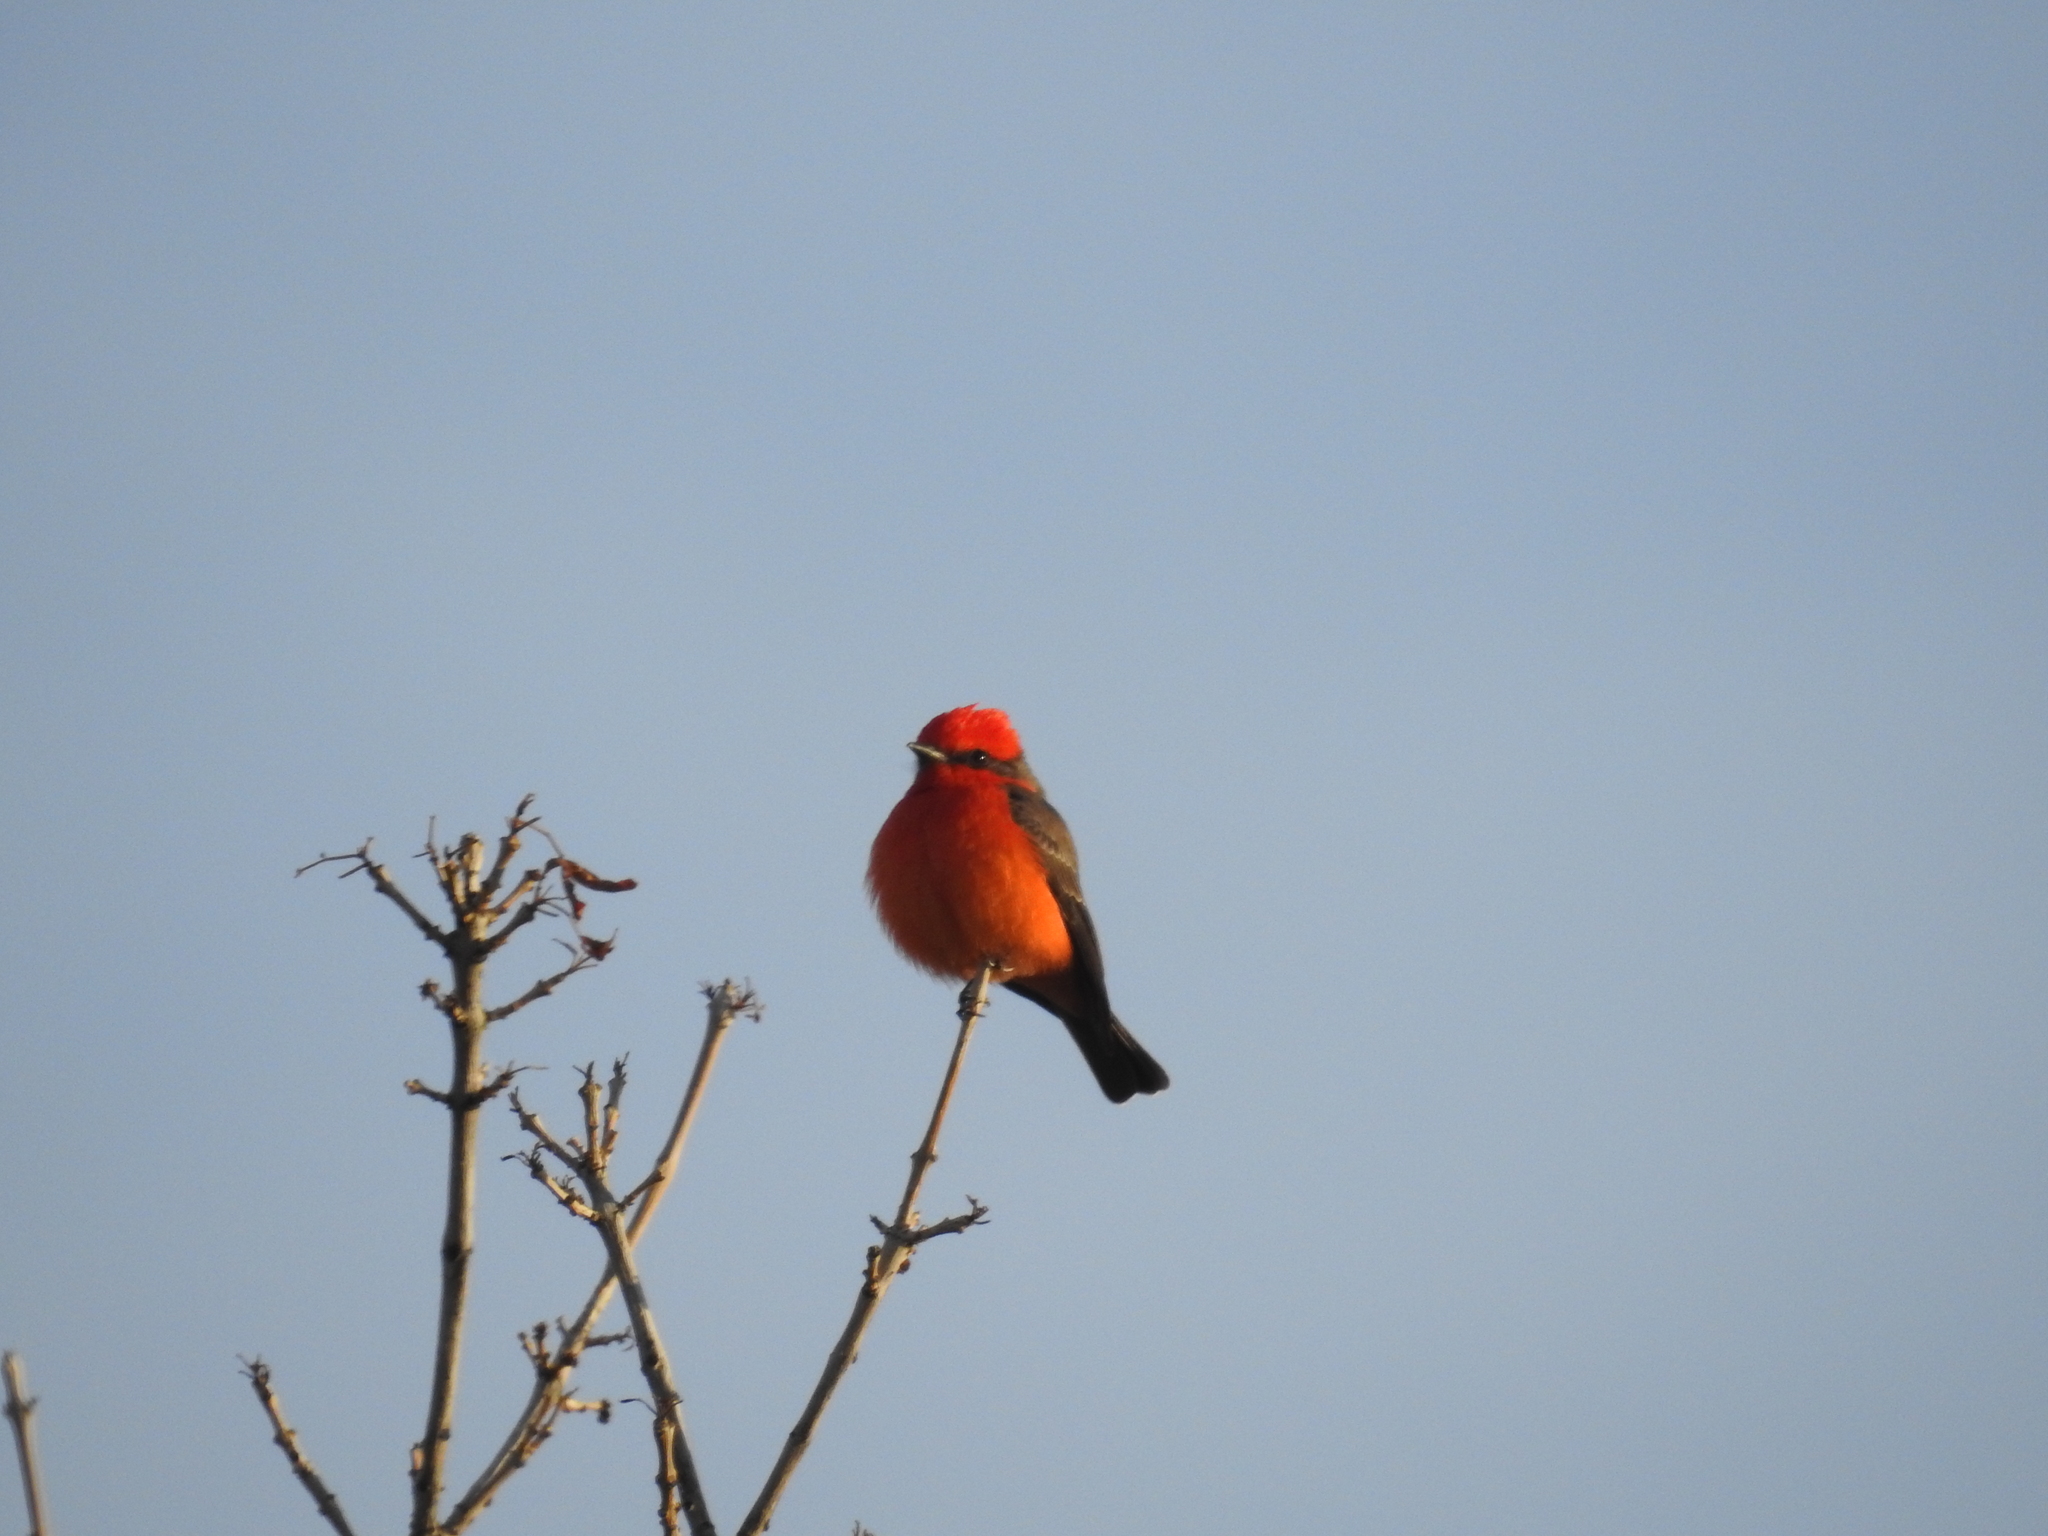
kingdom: Animalia
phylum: Chordata
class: Aves
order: Passeriformes
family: Tyrannidae
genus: Pyrocephalus
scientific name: Pyrocephalus rubinus
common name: Vermilion flycatcher
